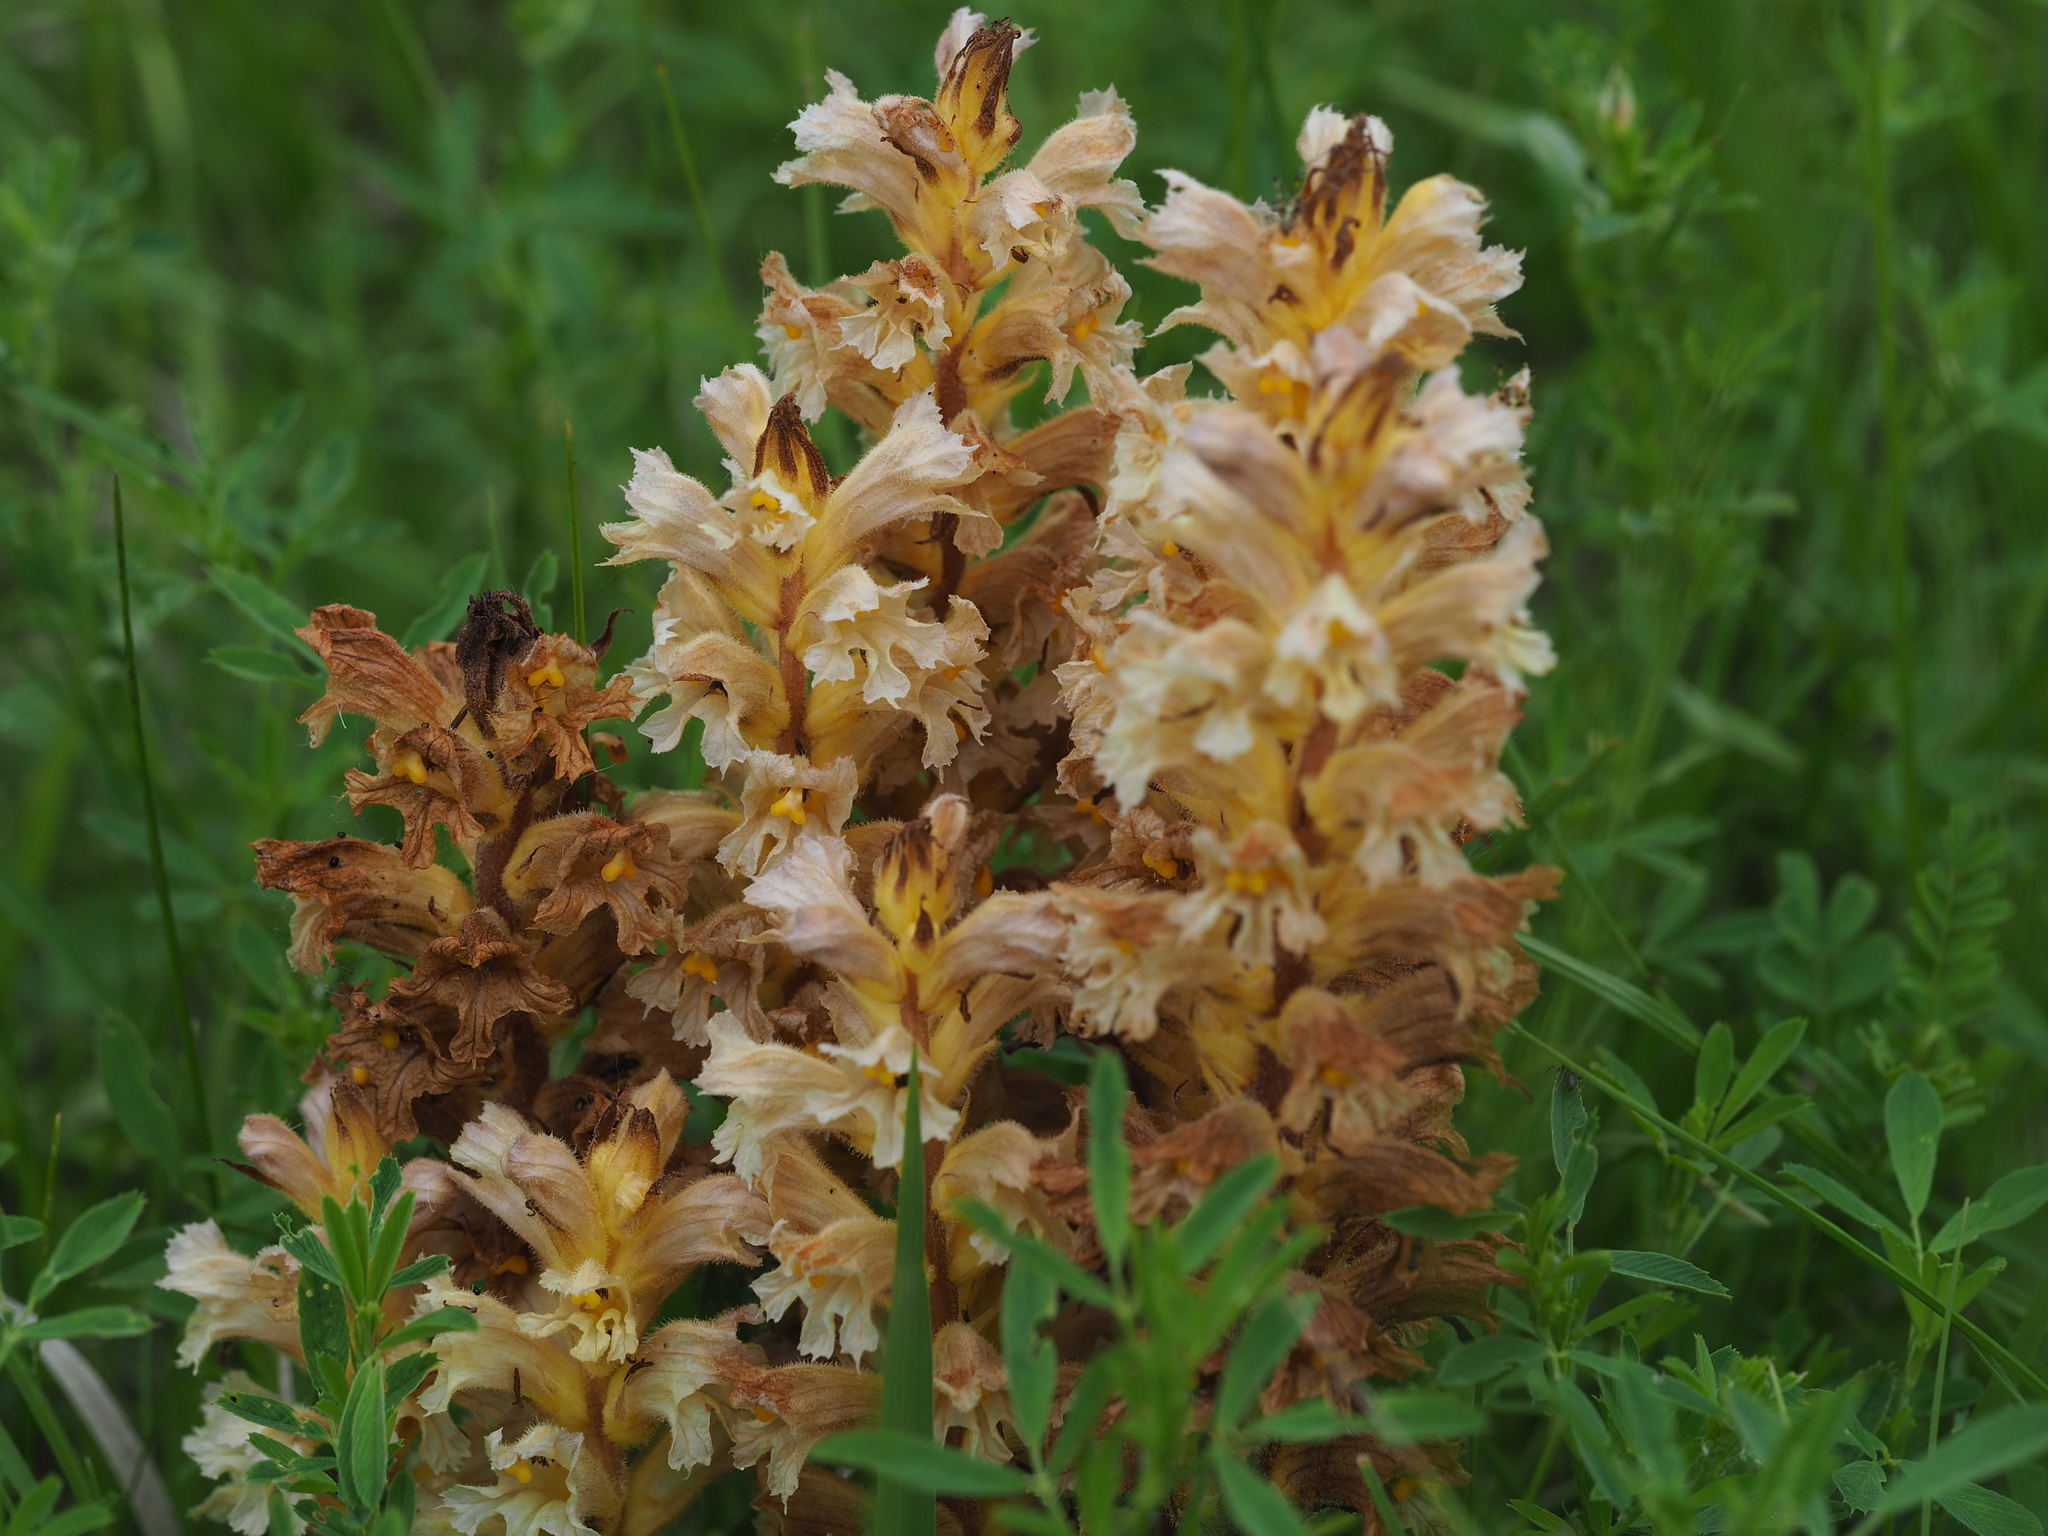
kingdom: Plantae
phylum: Tracheophyta
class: Magnoliopsida
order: Lamiales
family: Orobanchaceae
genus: Orobanche
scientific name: Orobanche lutea
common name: Yellow broomrape
